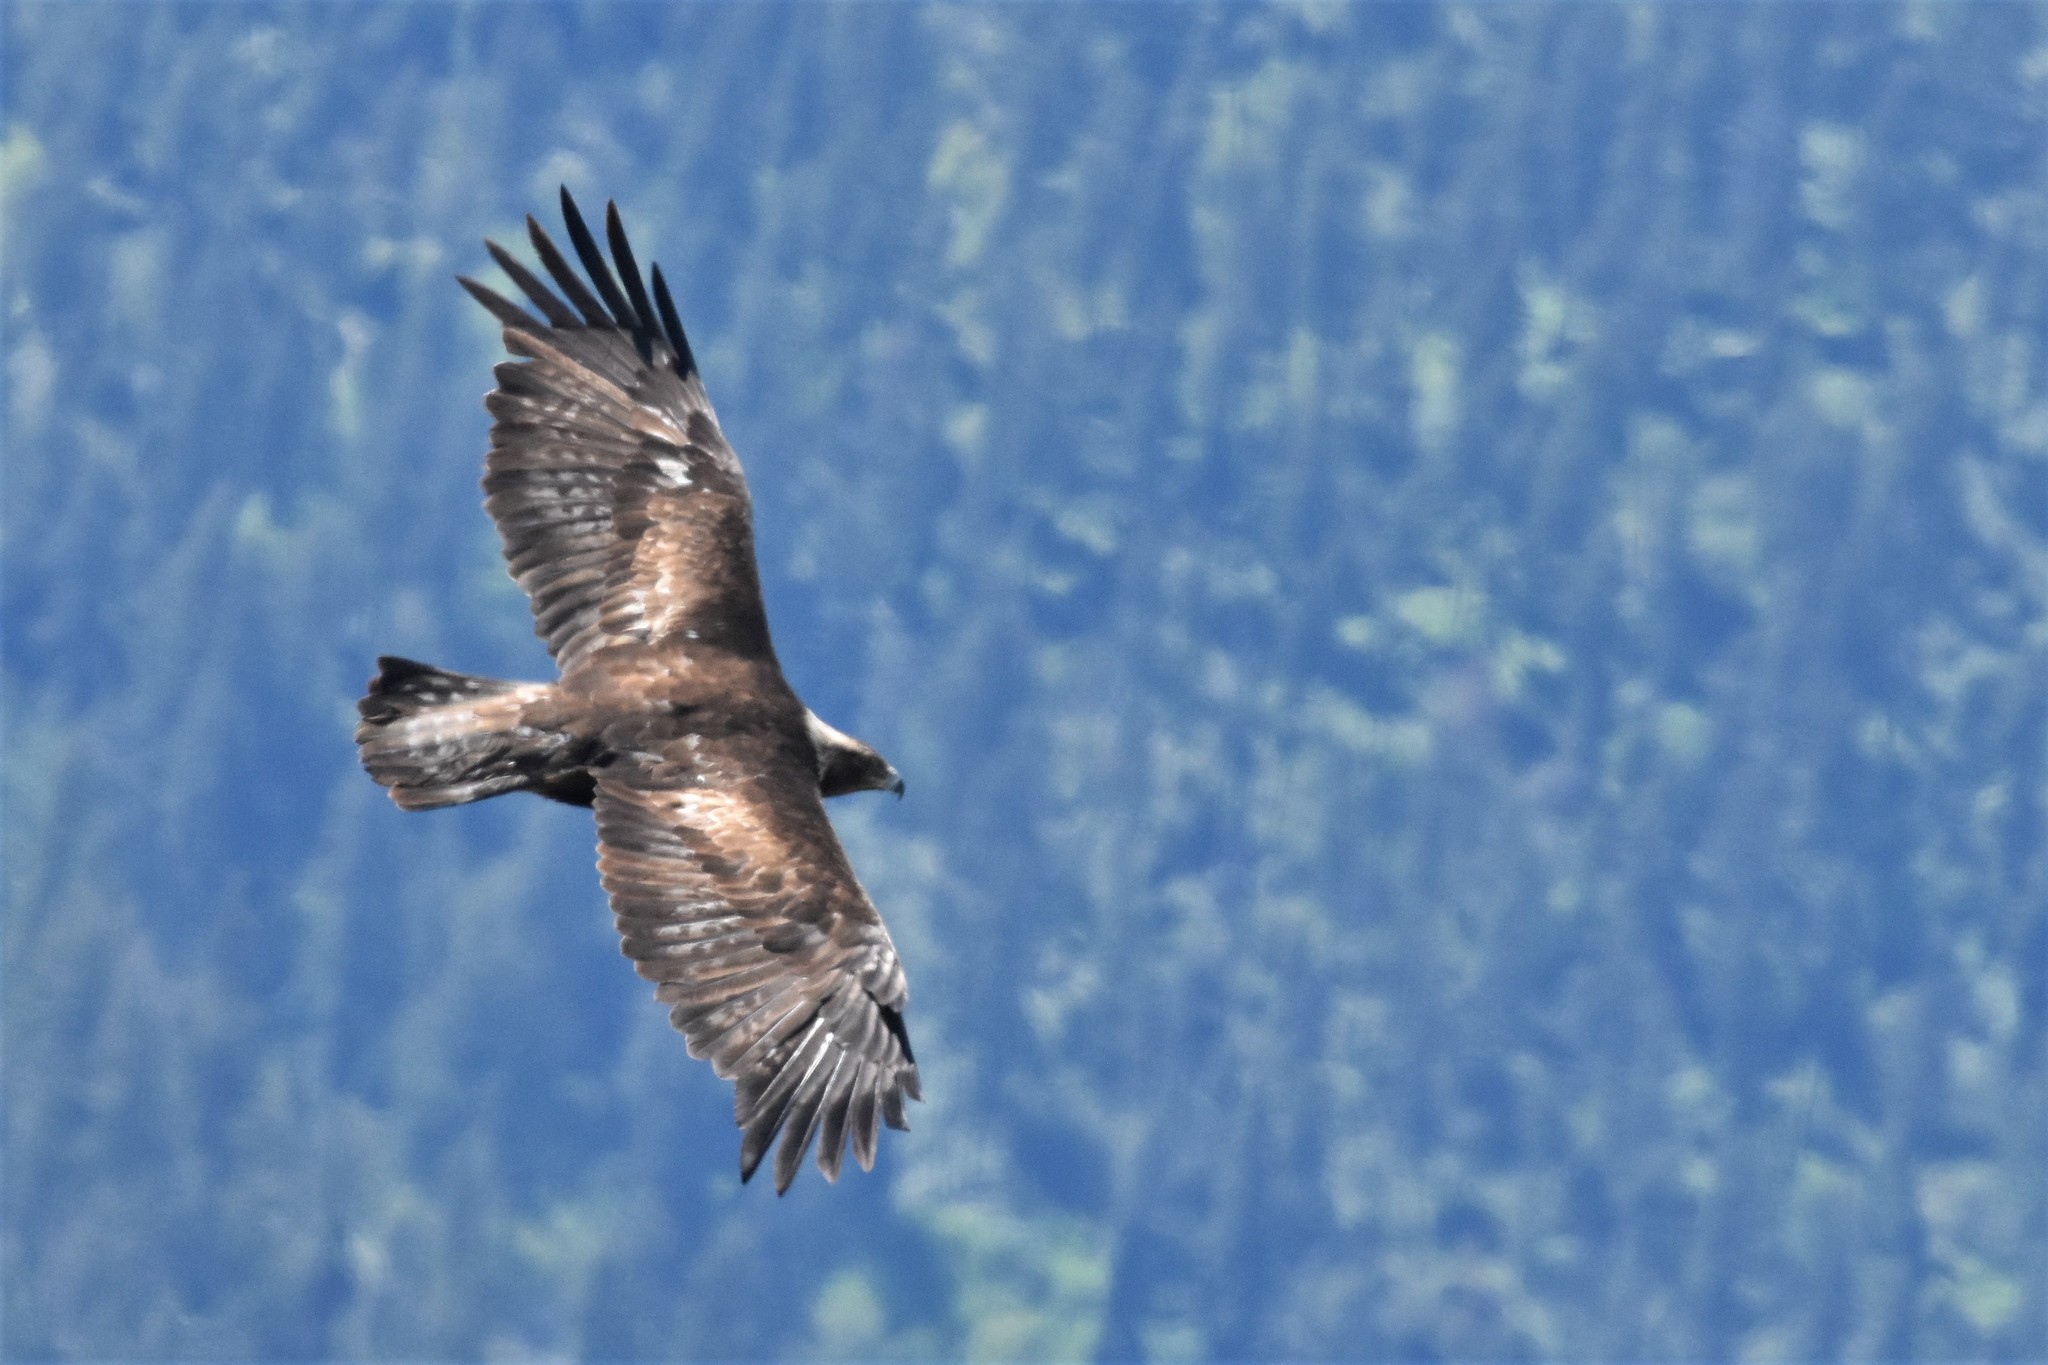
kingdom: Animalia
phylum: Chordata
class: Aves
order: Accipitriformes
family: Accipitridae
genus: Aquila
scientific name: Aquila chrysaetos
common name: Golden eagle
